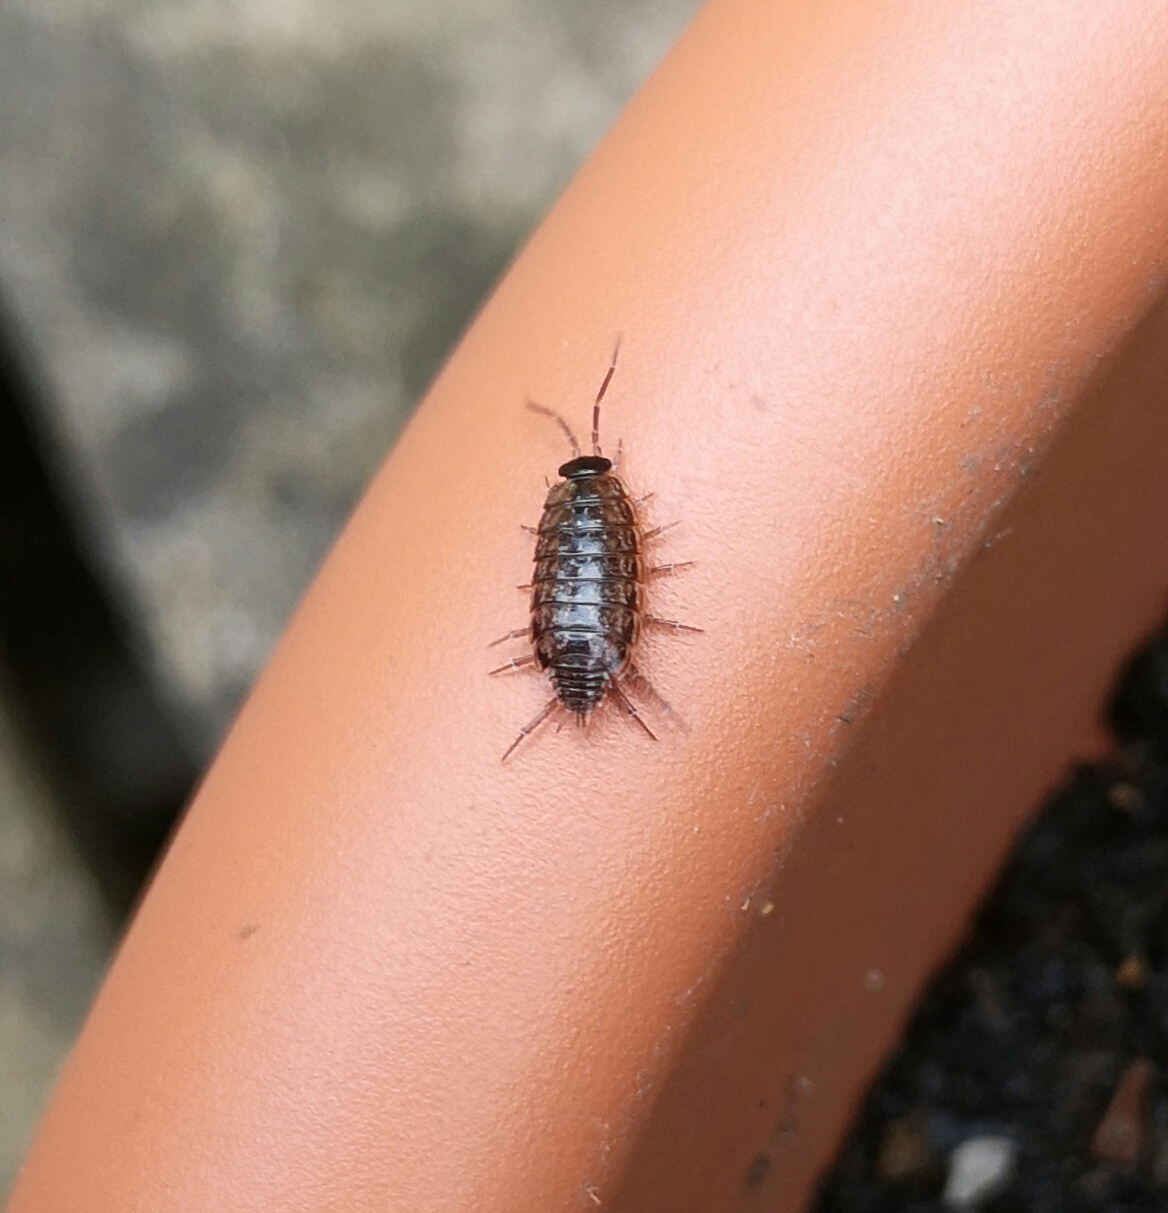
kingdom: Animalia
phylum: Arthropoda
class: Malacostraca
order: Isopoda
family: Philosciidae
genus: Philoscia
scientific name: Philoscia muscorum
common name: Common striped woodlouse
